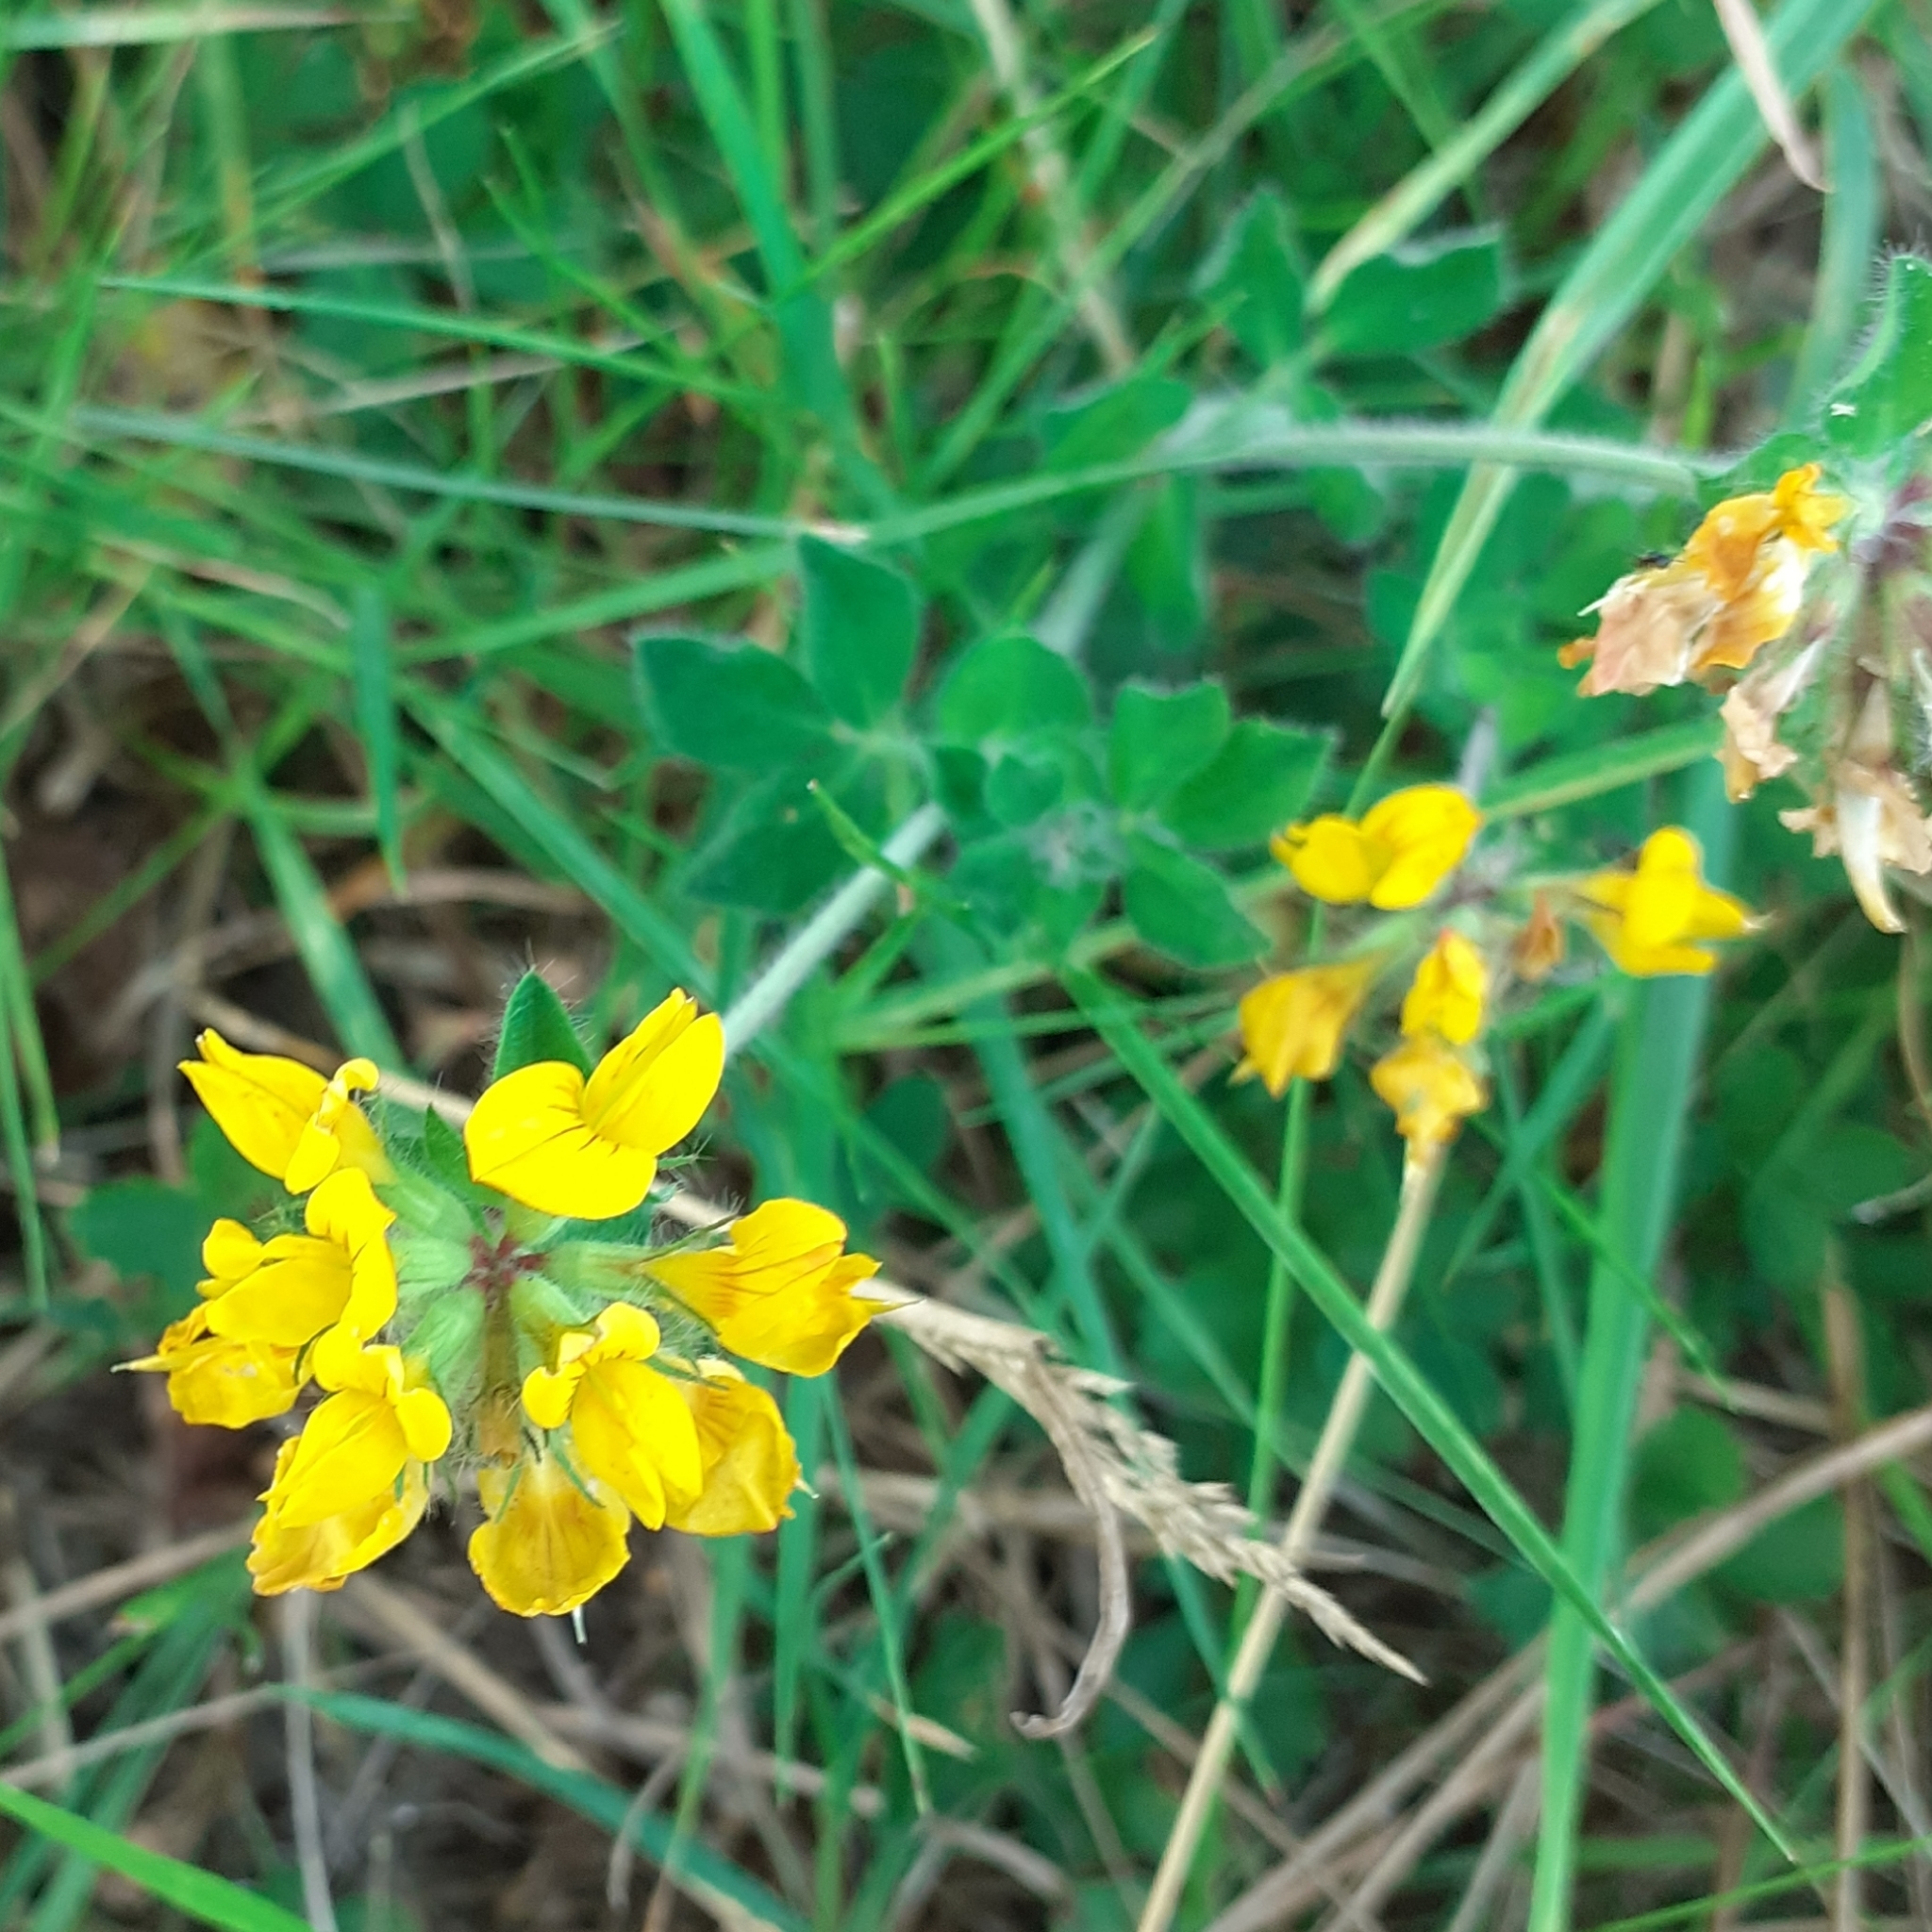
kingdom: Plantae
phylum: Tracheophyta
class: Magnoliopsida
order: Fabales
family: Fabaceae
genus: Lotus
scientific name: Lotus corniculatus
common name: Common bird's-foot-trefoil
